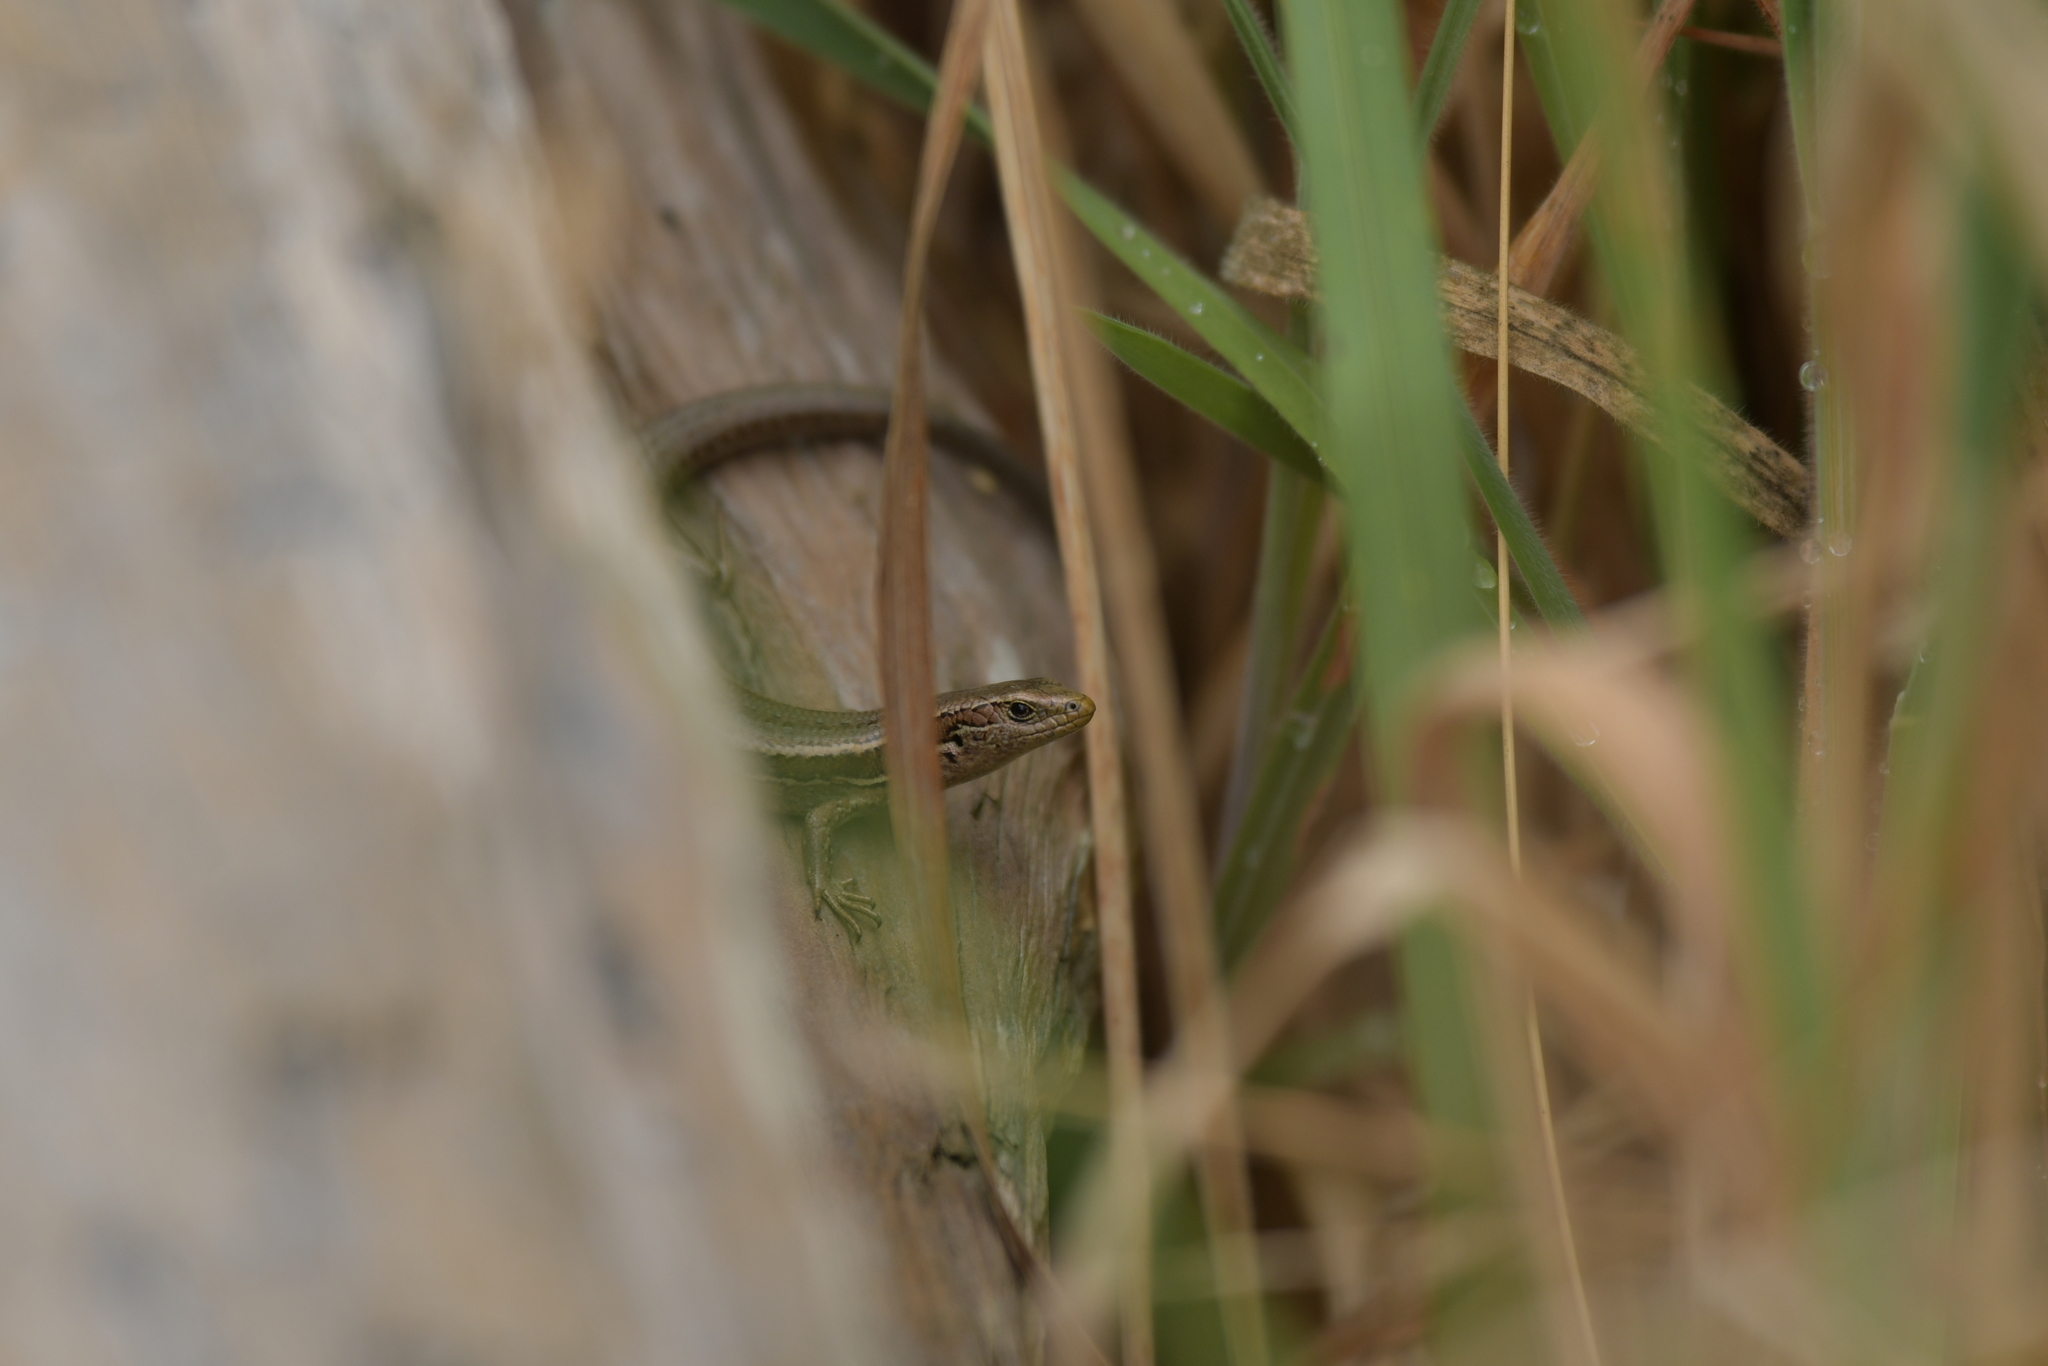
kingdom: Animalia
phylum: Chordata
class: Squamata
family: Scincidae
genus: Oligosoma
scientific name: Oligosoma polychroma
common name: Common new zealand skink
